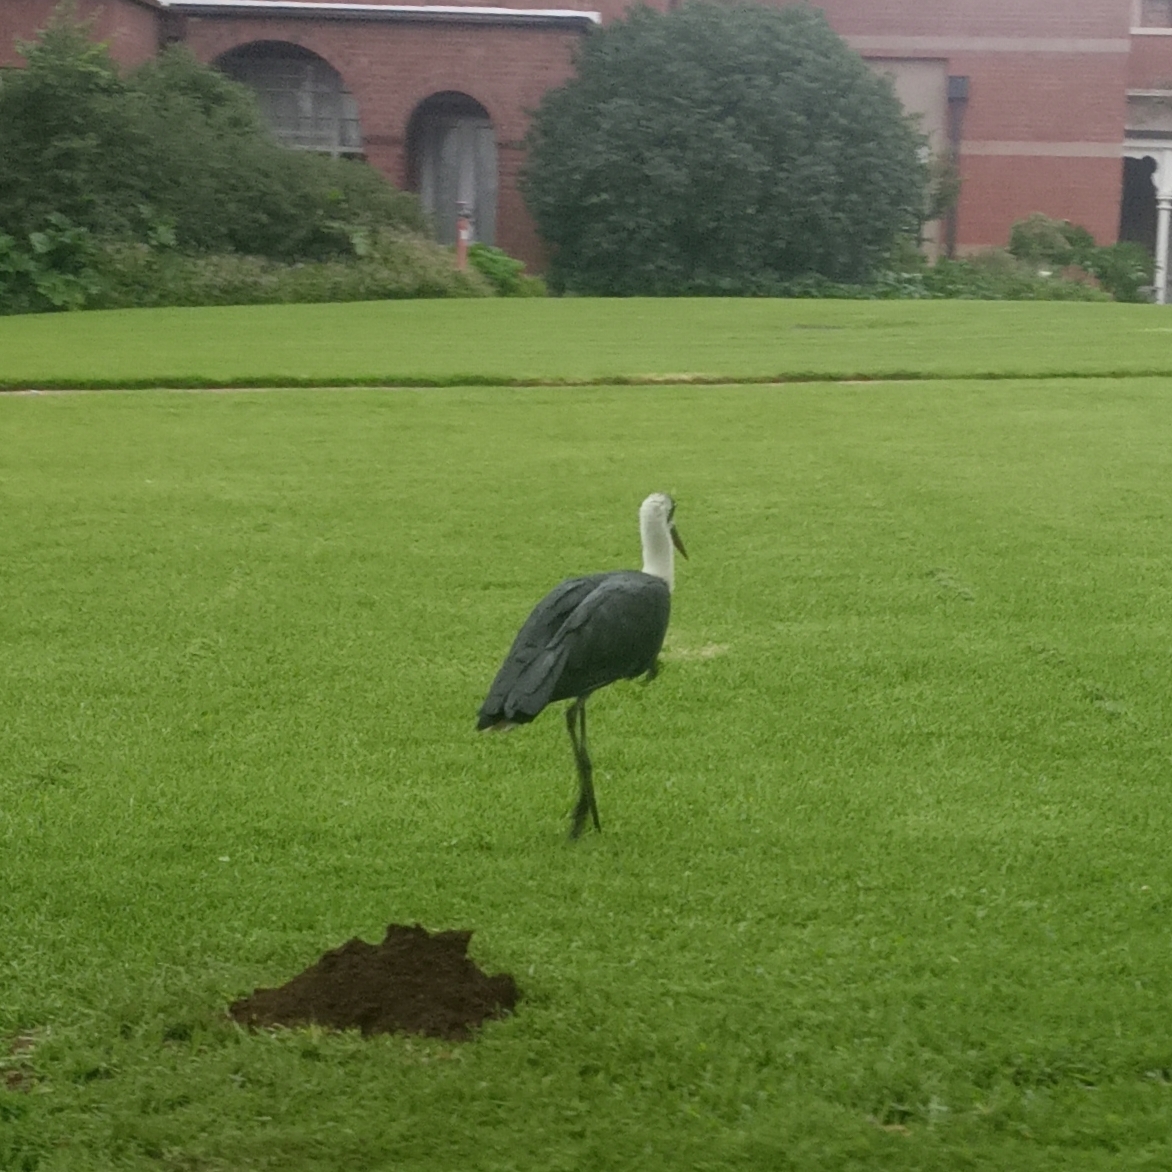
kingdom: Animalia
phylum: Chordata
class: Aves
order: Ciconiiformes
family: Ciconiidae
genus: Ciconia
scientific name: Ciconia microscelis
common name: African woollyneck
